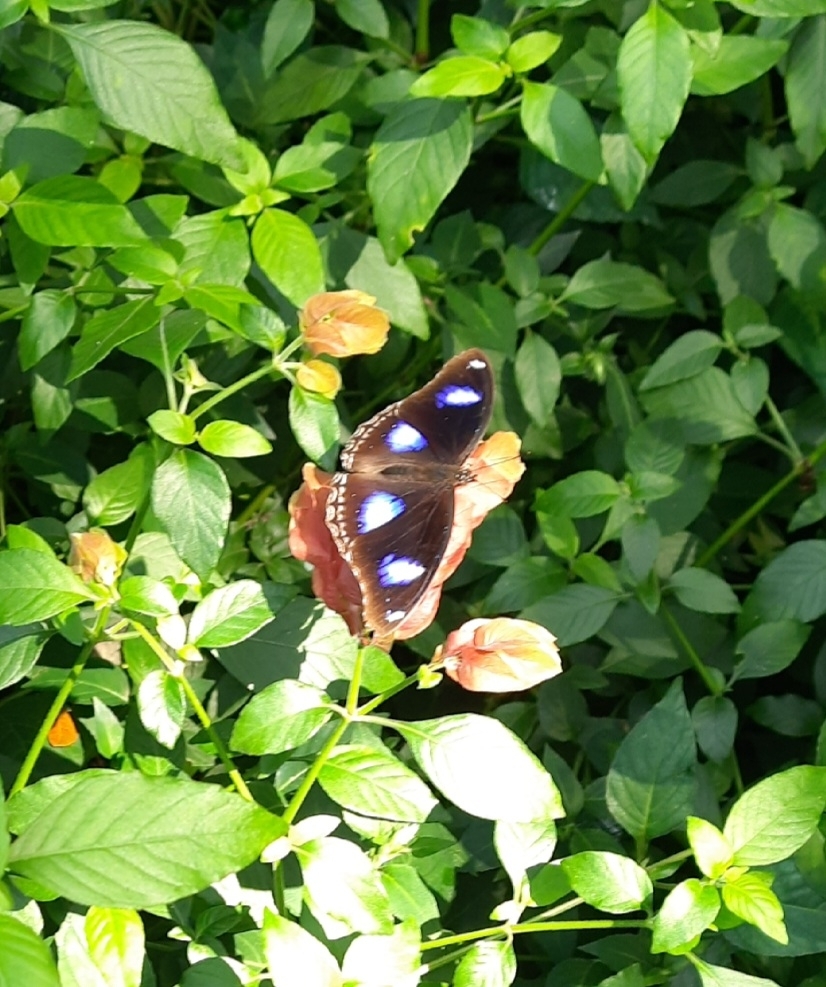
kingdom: Animalia
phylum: Arthropoda
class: Insecta
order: Lepidoptera
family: Nymphalidae
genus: Hypolimnas
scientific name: Hypolimnas bolina
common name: Great eggfly
